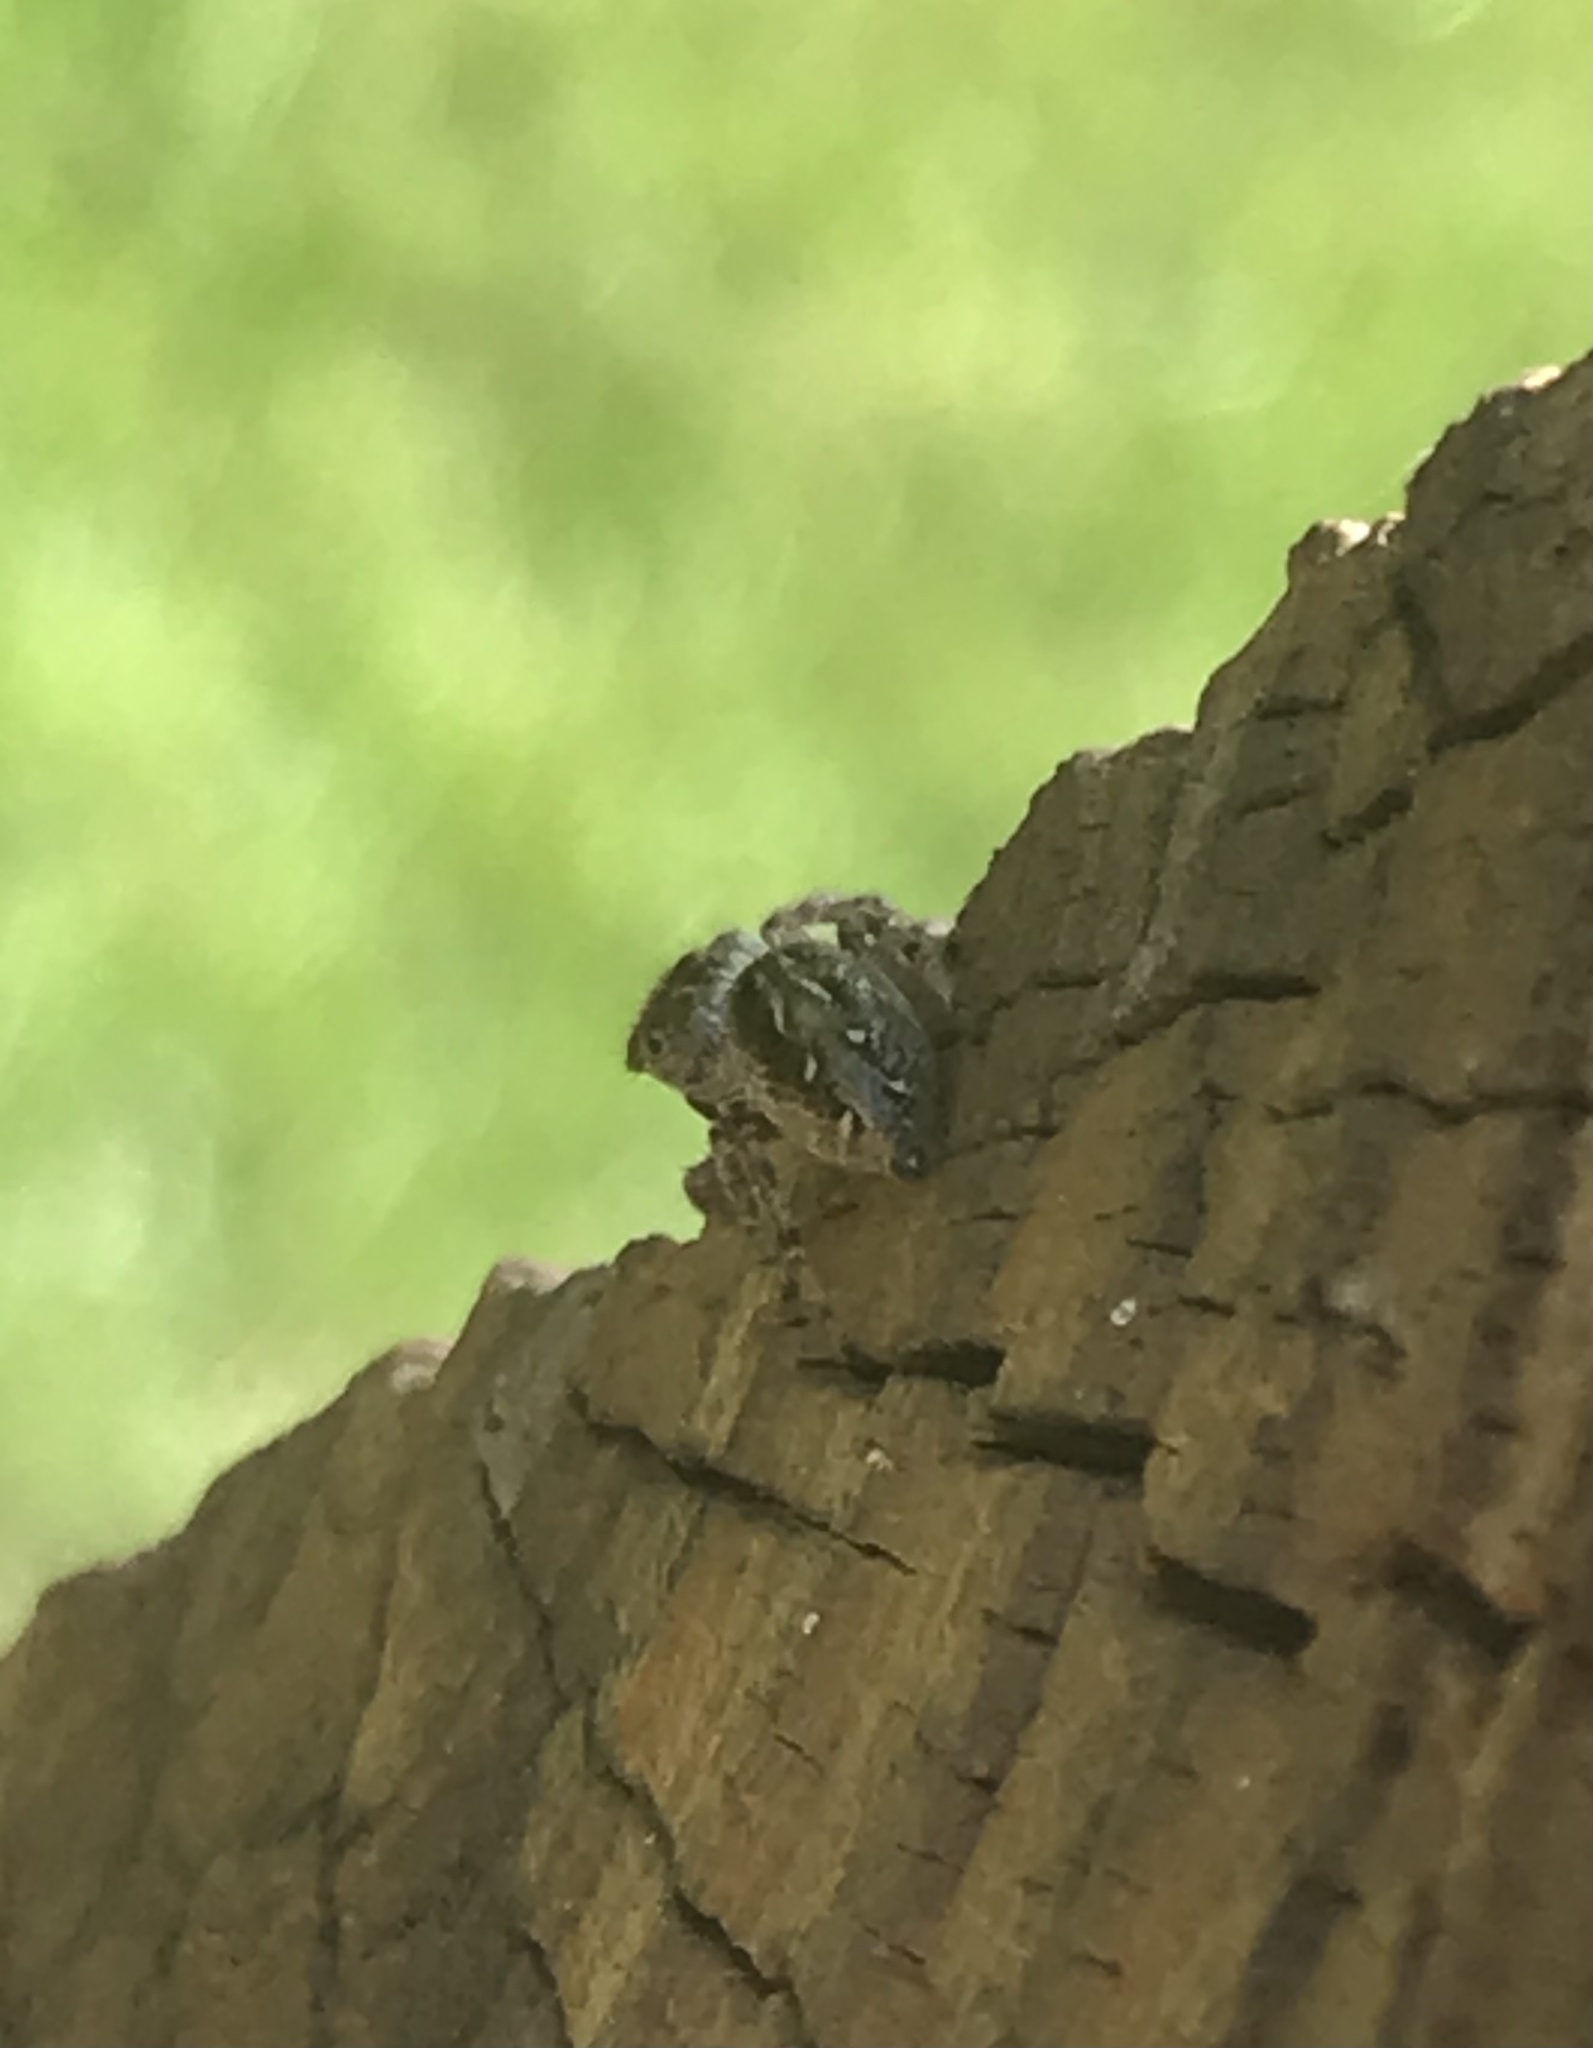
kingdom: Animalia
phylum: Arthropoda
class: Arachnida
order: Araneae
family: Salticidae
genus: Eris
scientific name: Eris militaris
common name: Bronze jumper
